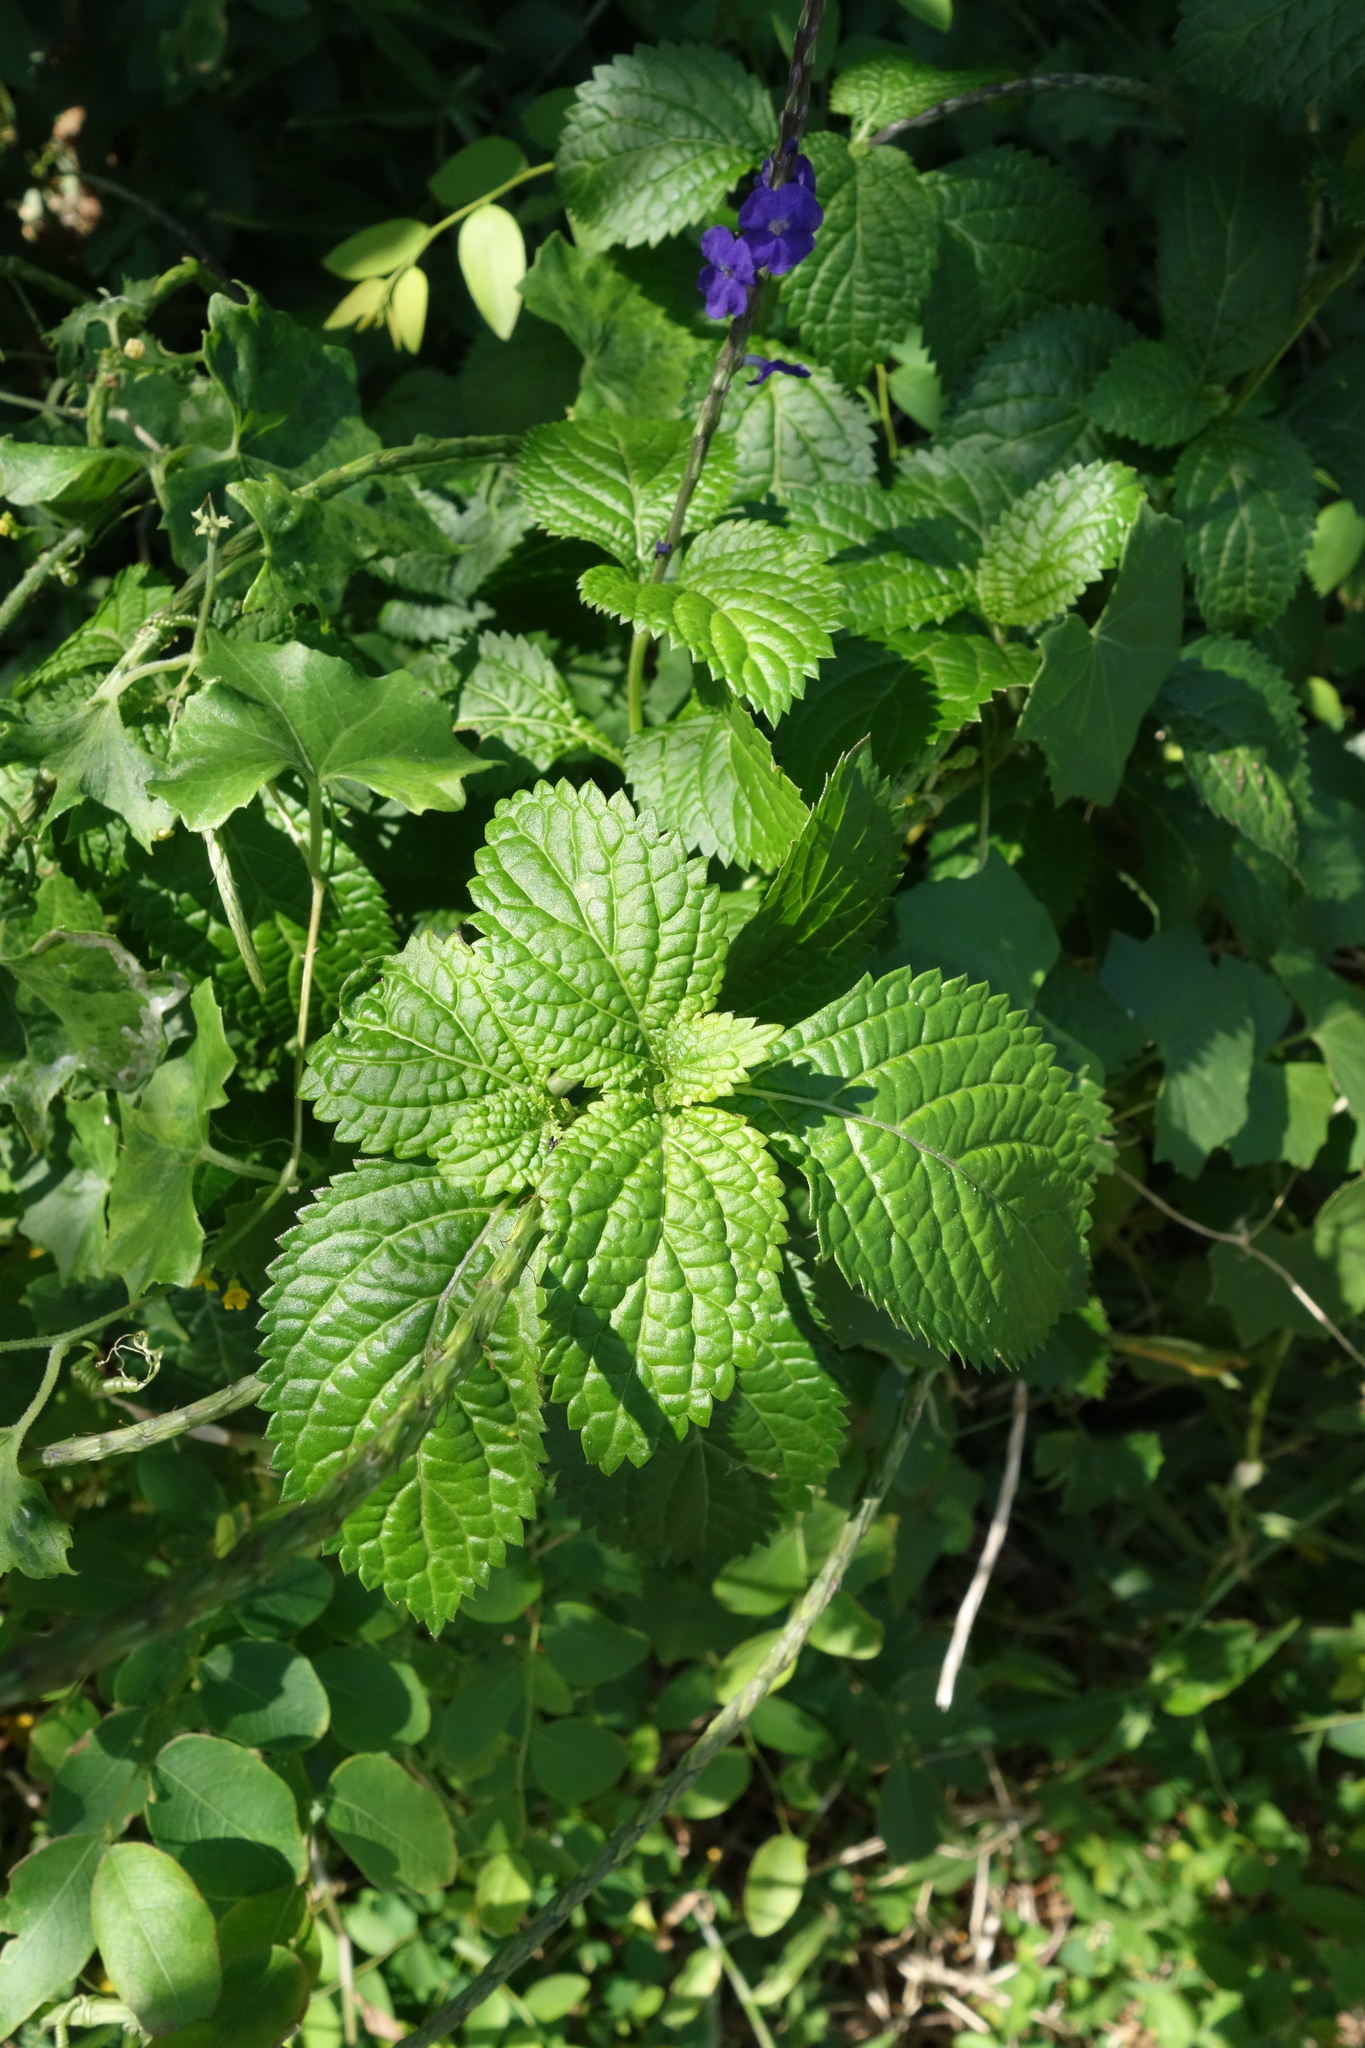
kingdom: Plantae
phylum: Tracheophyta
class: Magnoliopsida
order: Lamiales
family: Verbenaceae
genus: Stachytarpheta
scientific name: Stachytarpheta urticifolia
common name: Nettleleaf velvetberry
